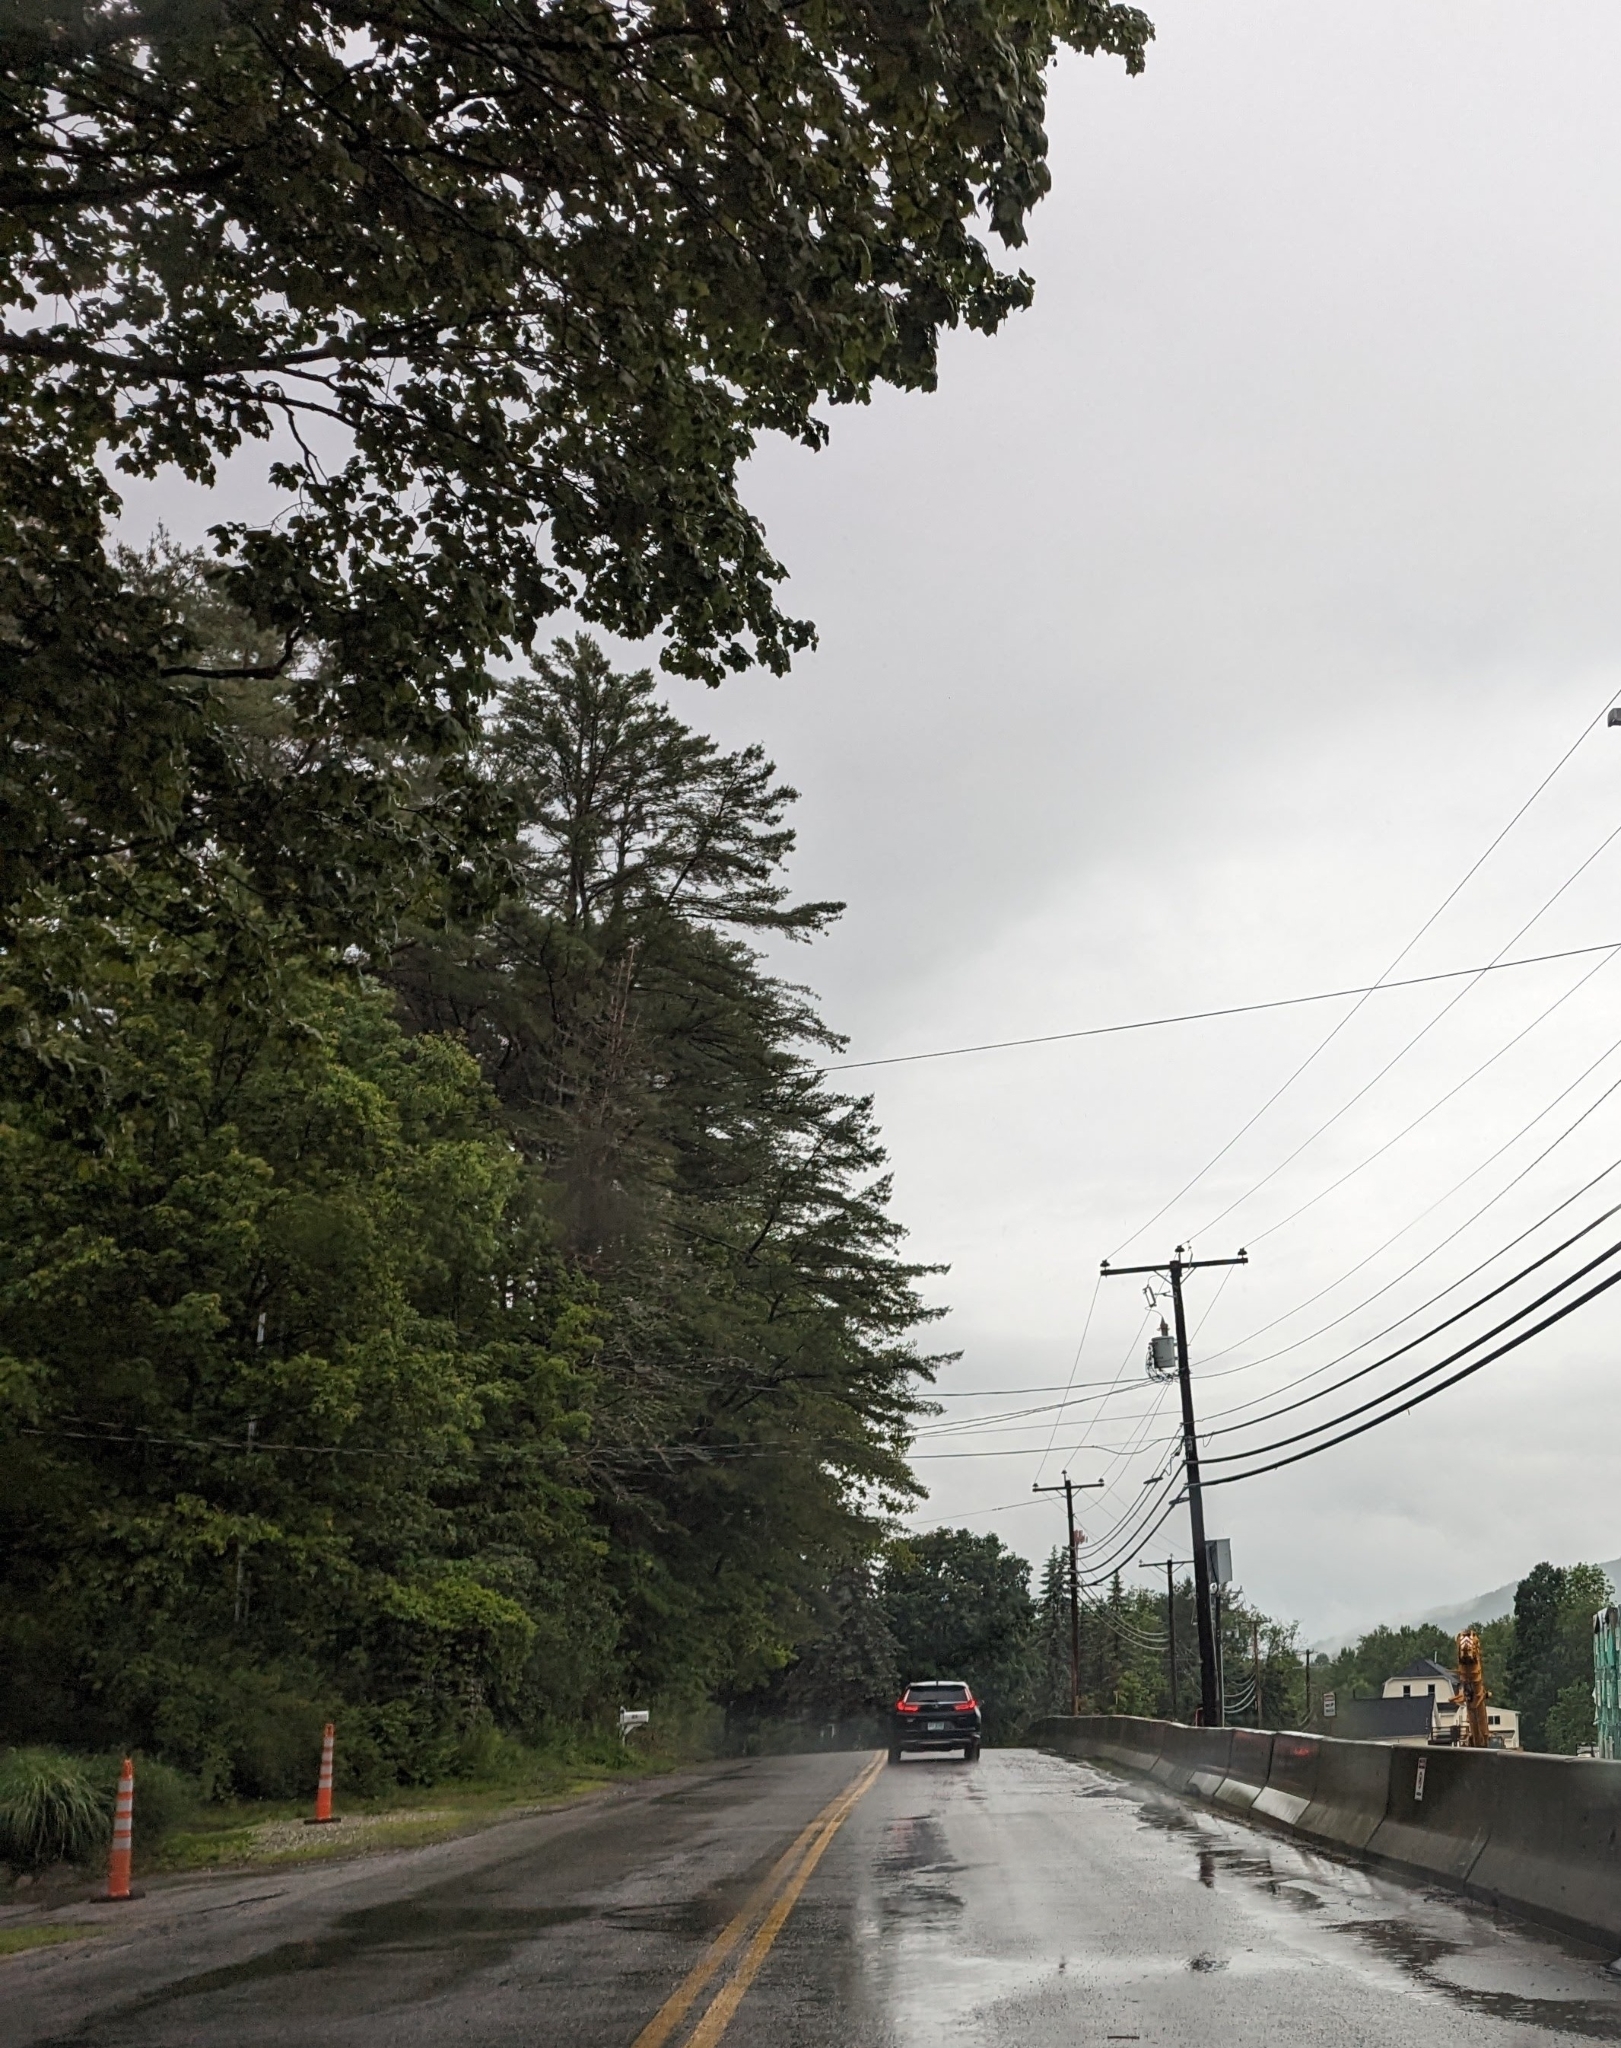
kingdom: Plantae
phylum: Tracheophyta
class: Pinopsida
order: Pinales
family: Pinaceae
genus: Pinus
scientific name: Pinus strobus
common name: Weymouth pine
